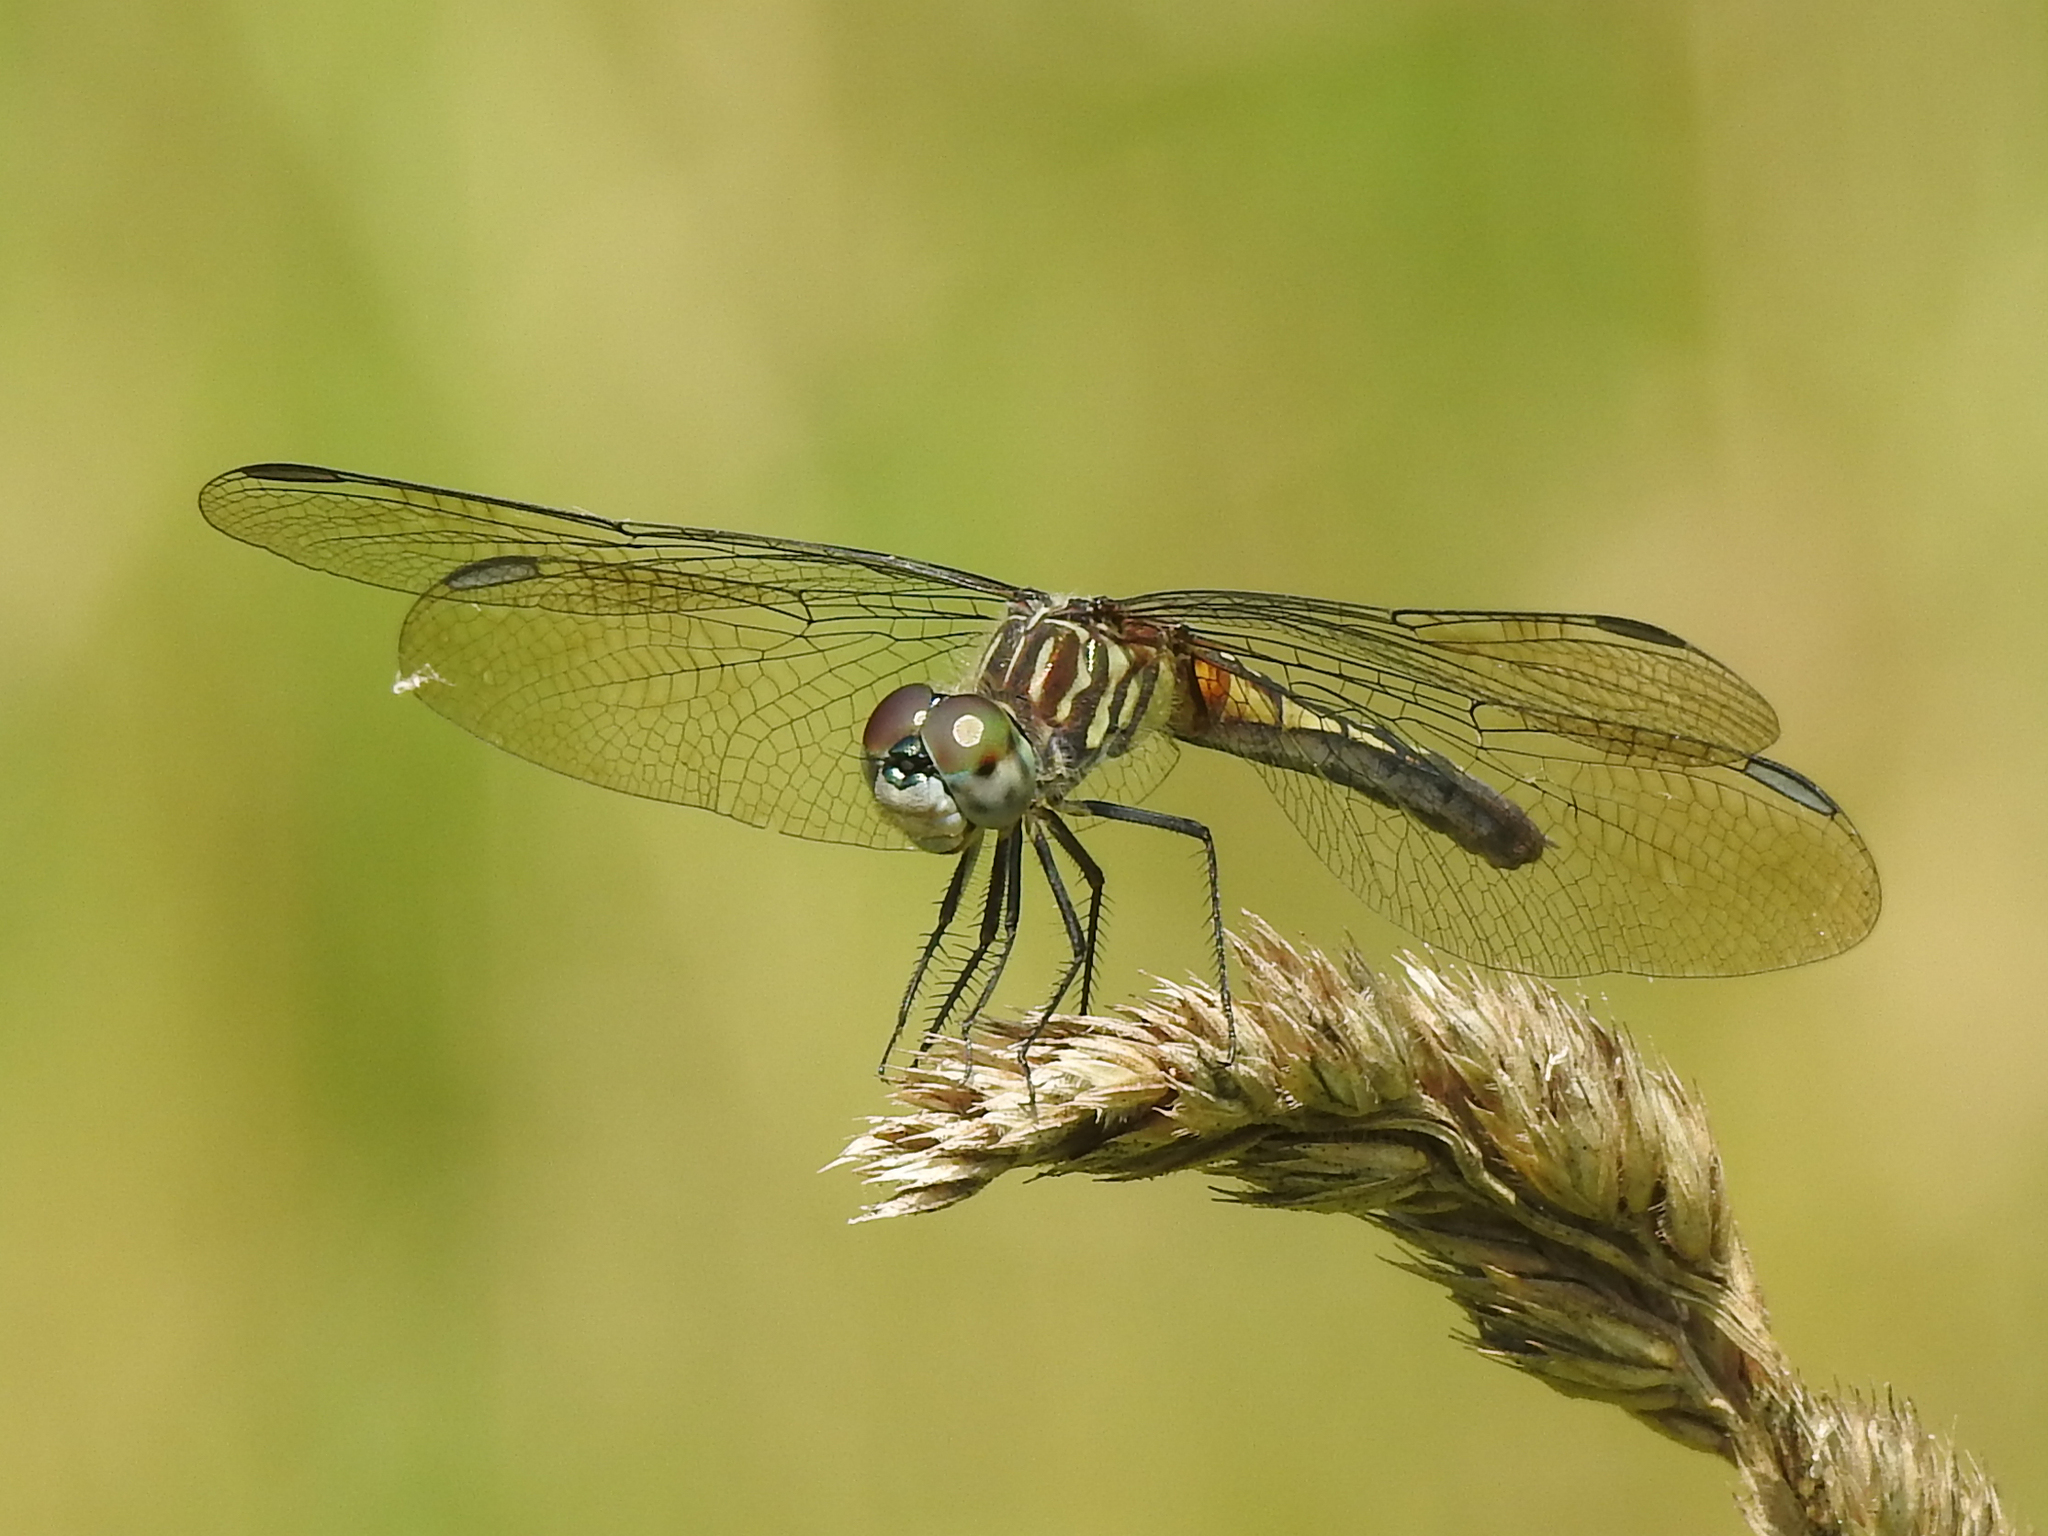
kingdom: Animalia
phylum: Arthropoda
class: Insecta
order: Odonata
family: Libellulidae
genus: Pachydiplax
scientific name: Pachydiplax longipennis
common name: Blue dasher
